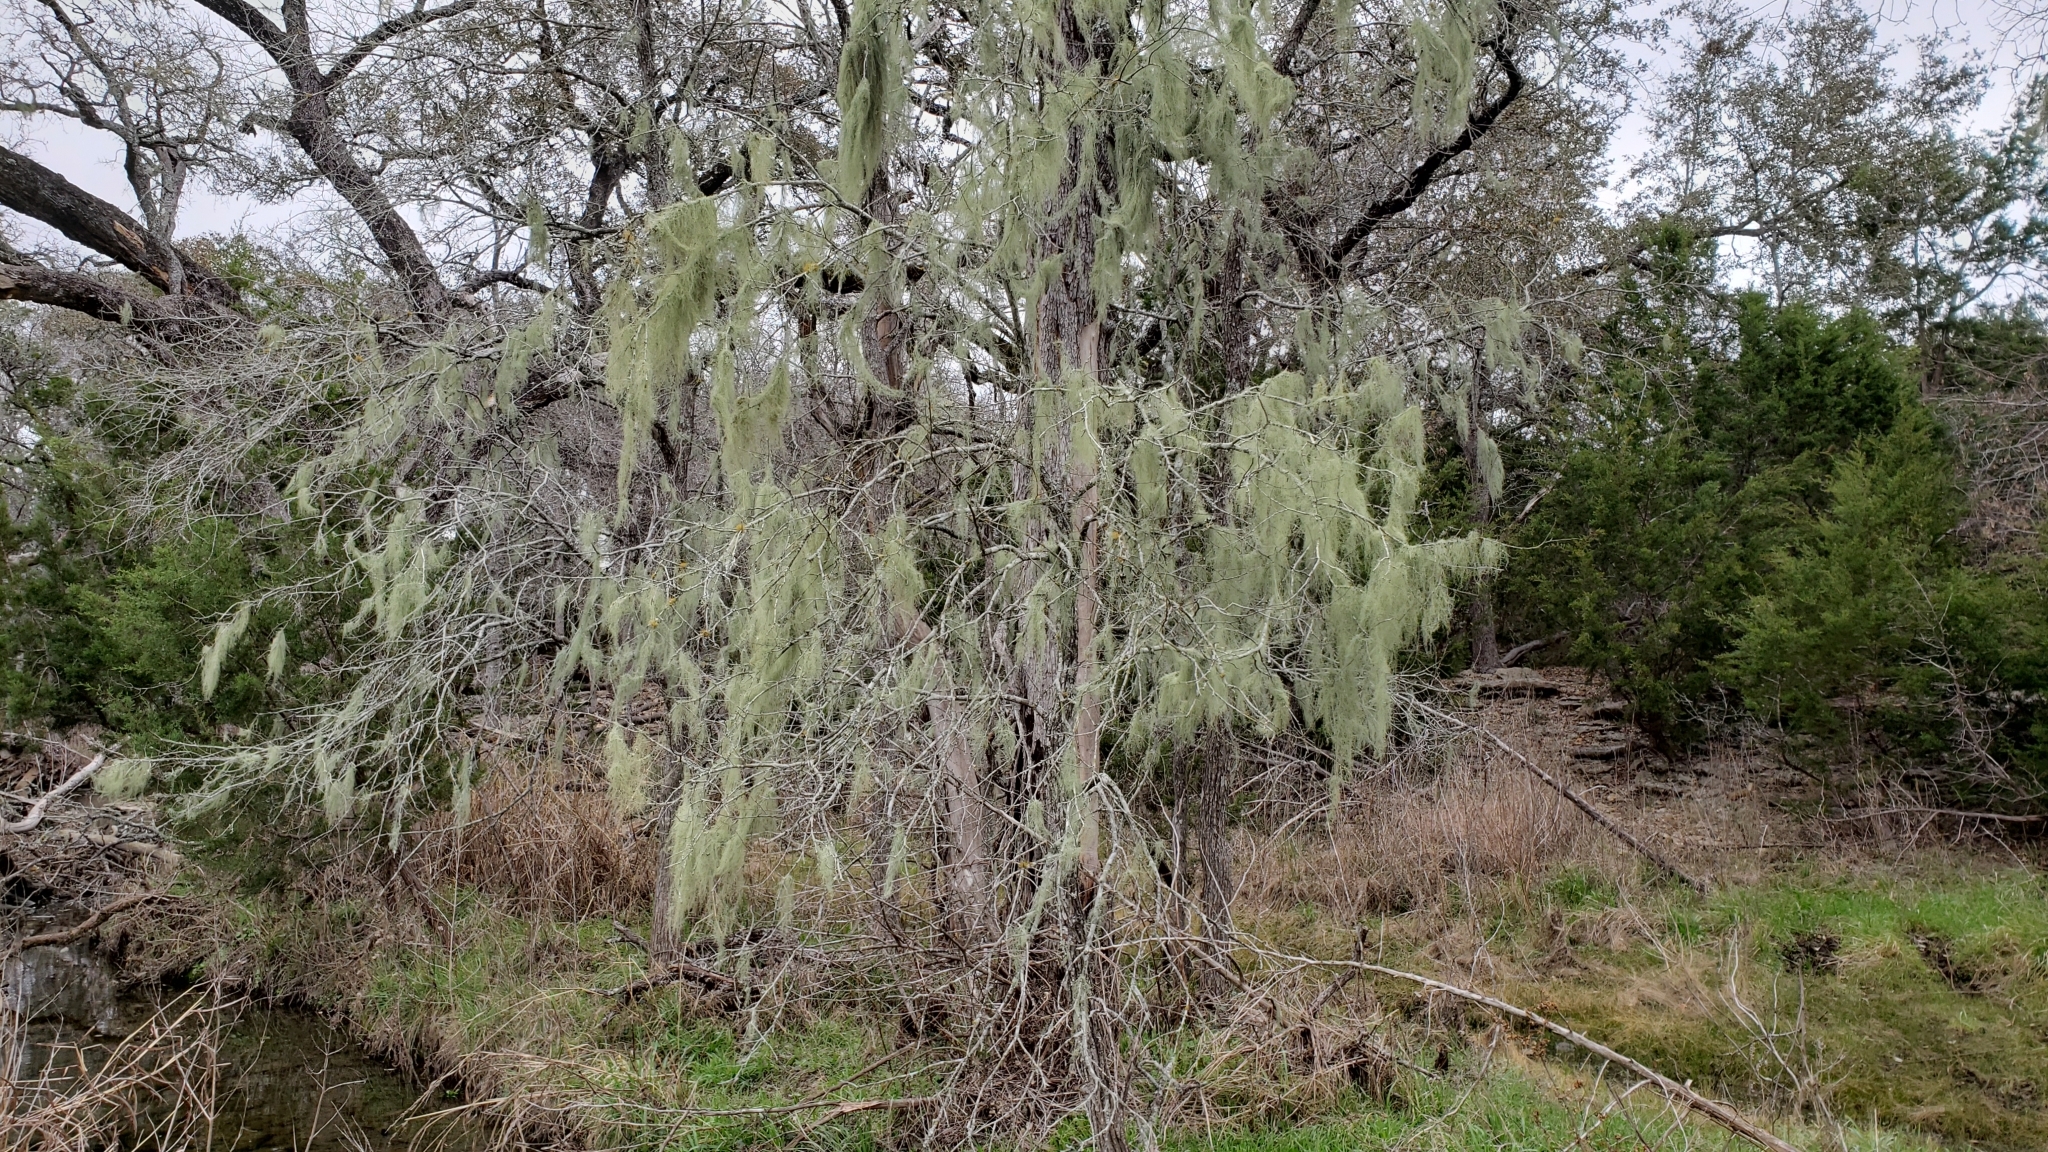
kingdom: Fungi
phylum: Ascomycota
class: Lecanoromycetes
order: Lecanorales
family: Parmeliaceae
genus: Usnea
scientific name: Usnea trichodea
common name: Bony beard lichen
